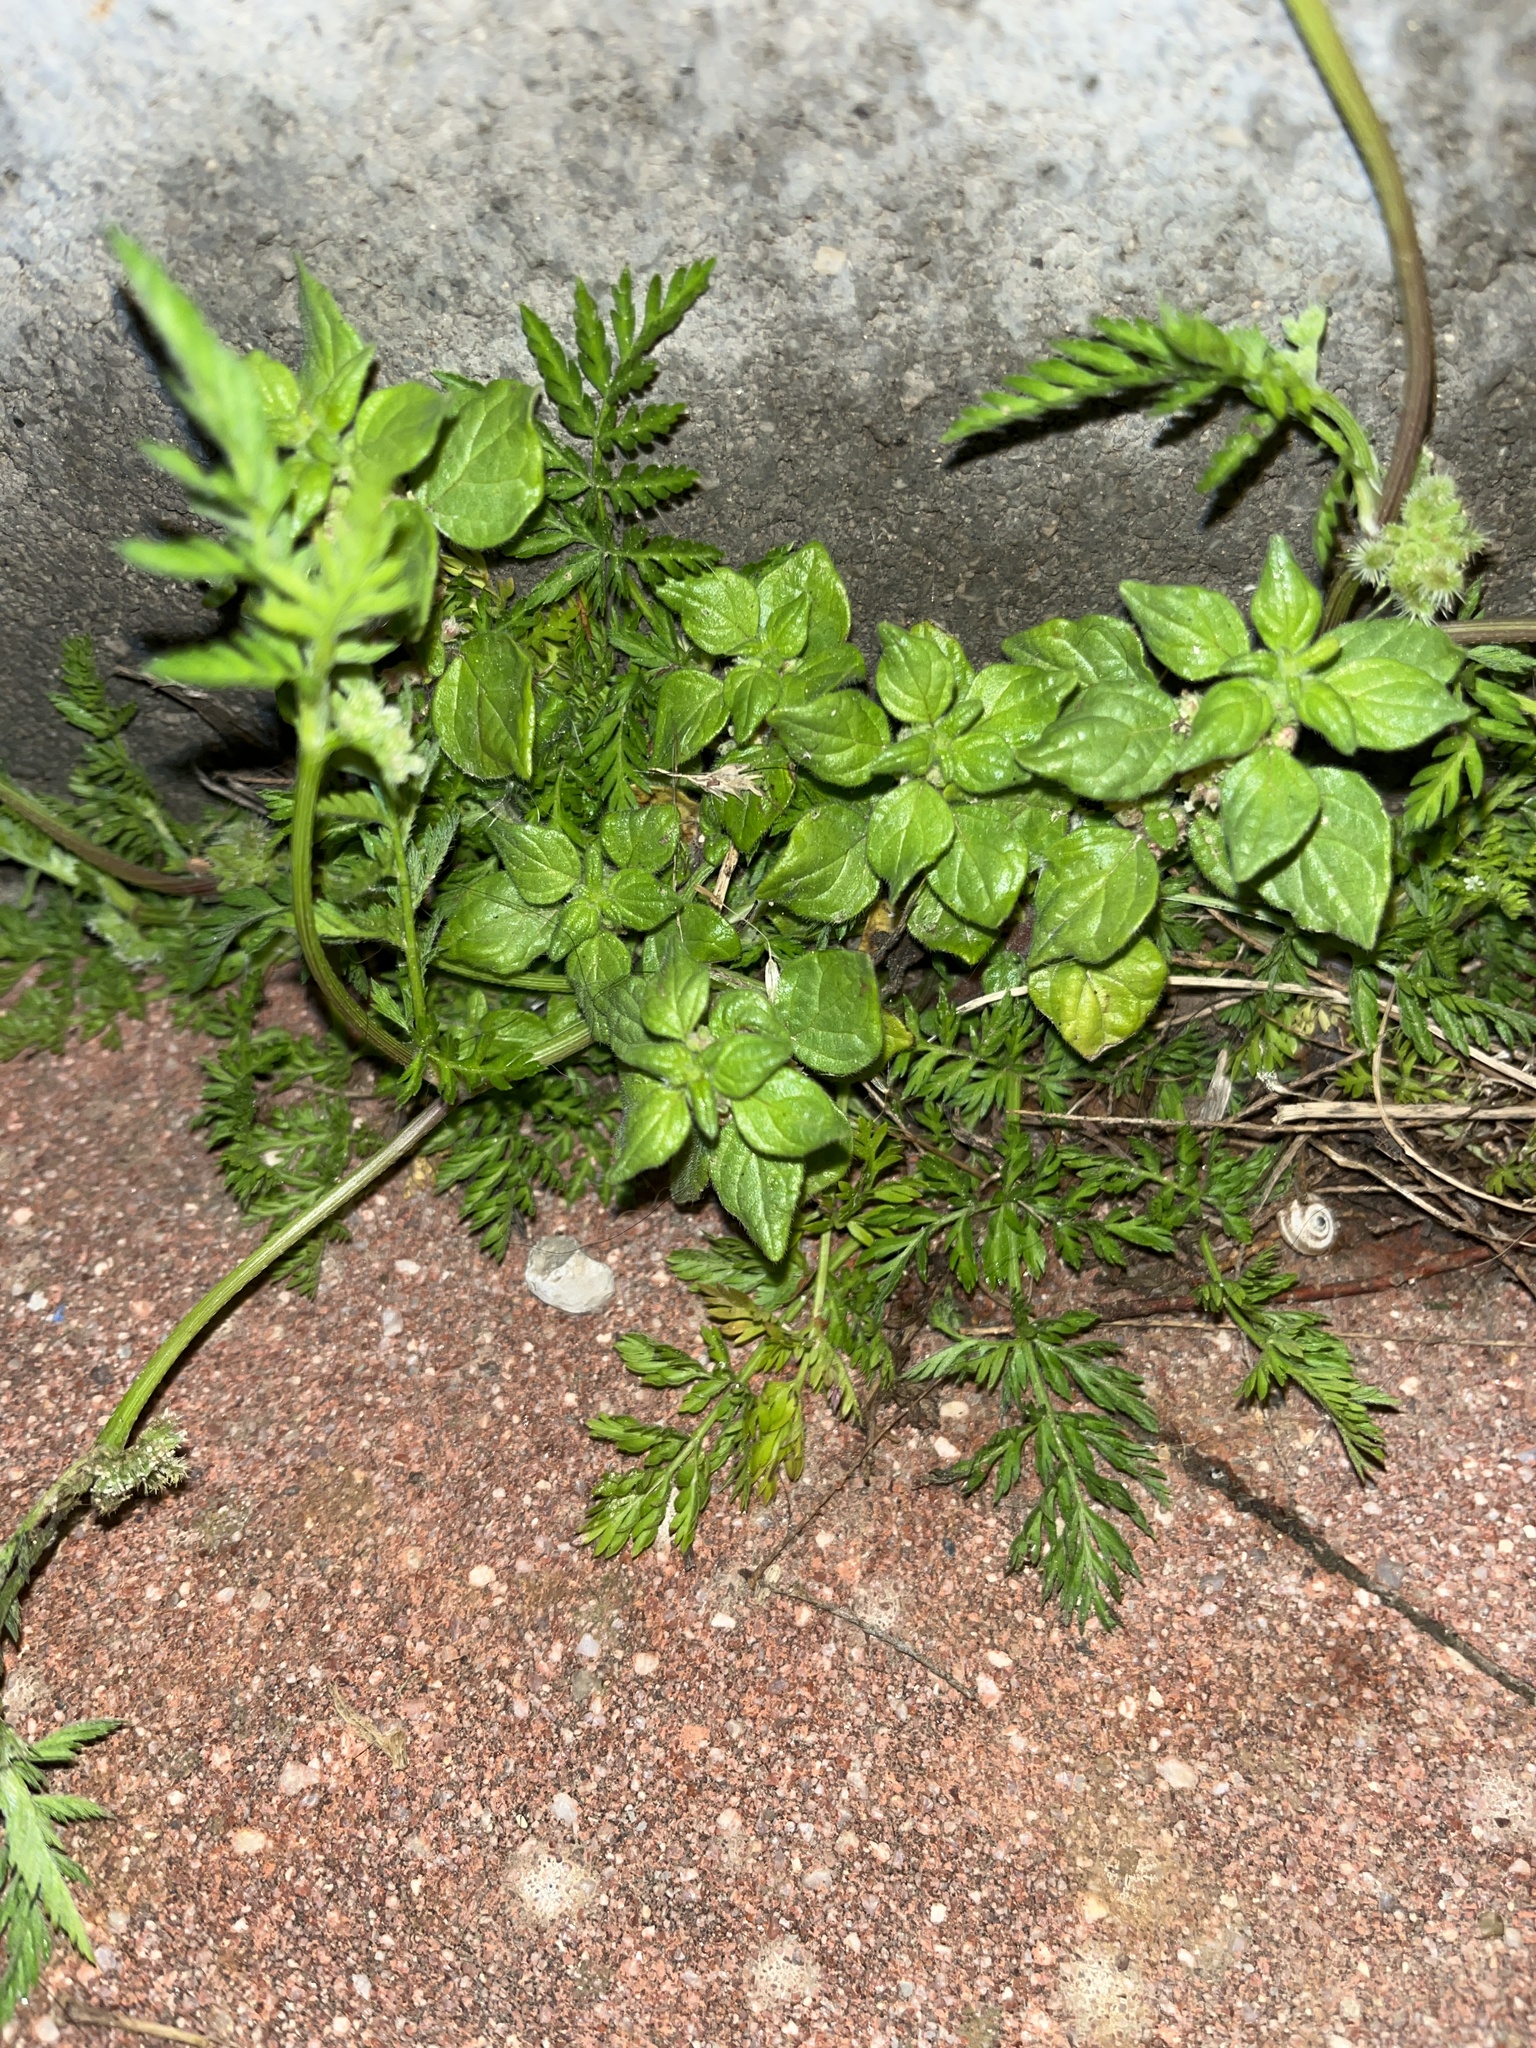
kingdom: Plantae
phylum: Tracheophyta
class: Magnoliopsida
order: Rosales
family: Urticaceae
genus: Parietaria
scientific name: Parietaria judaica
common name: Pellitory-of-the-wall
